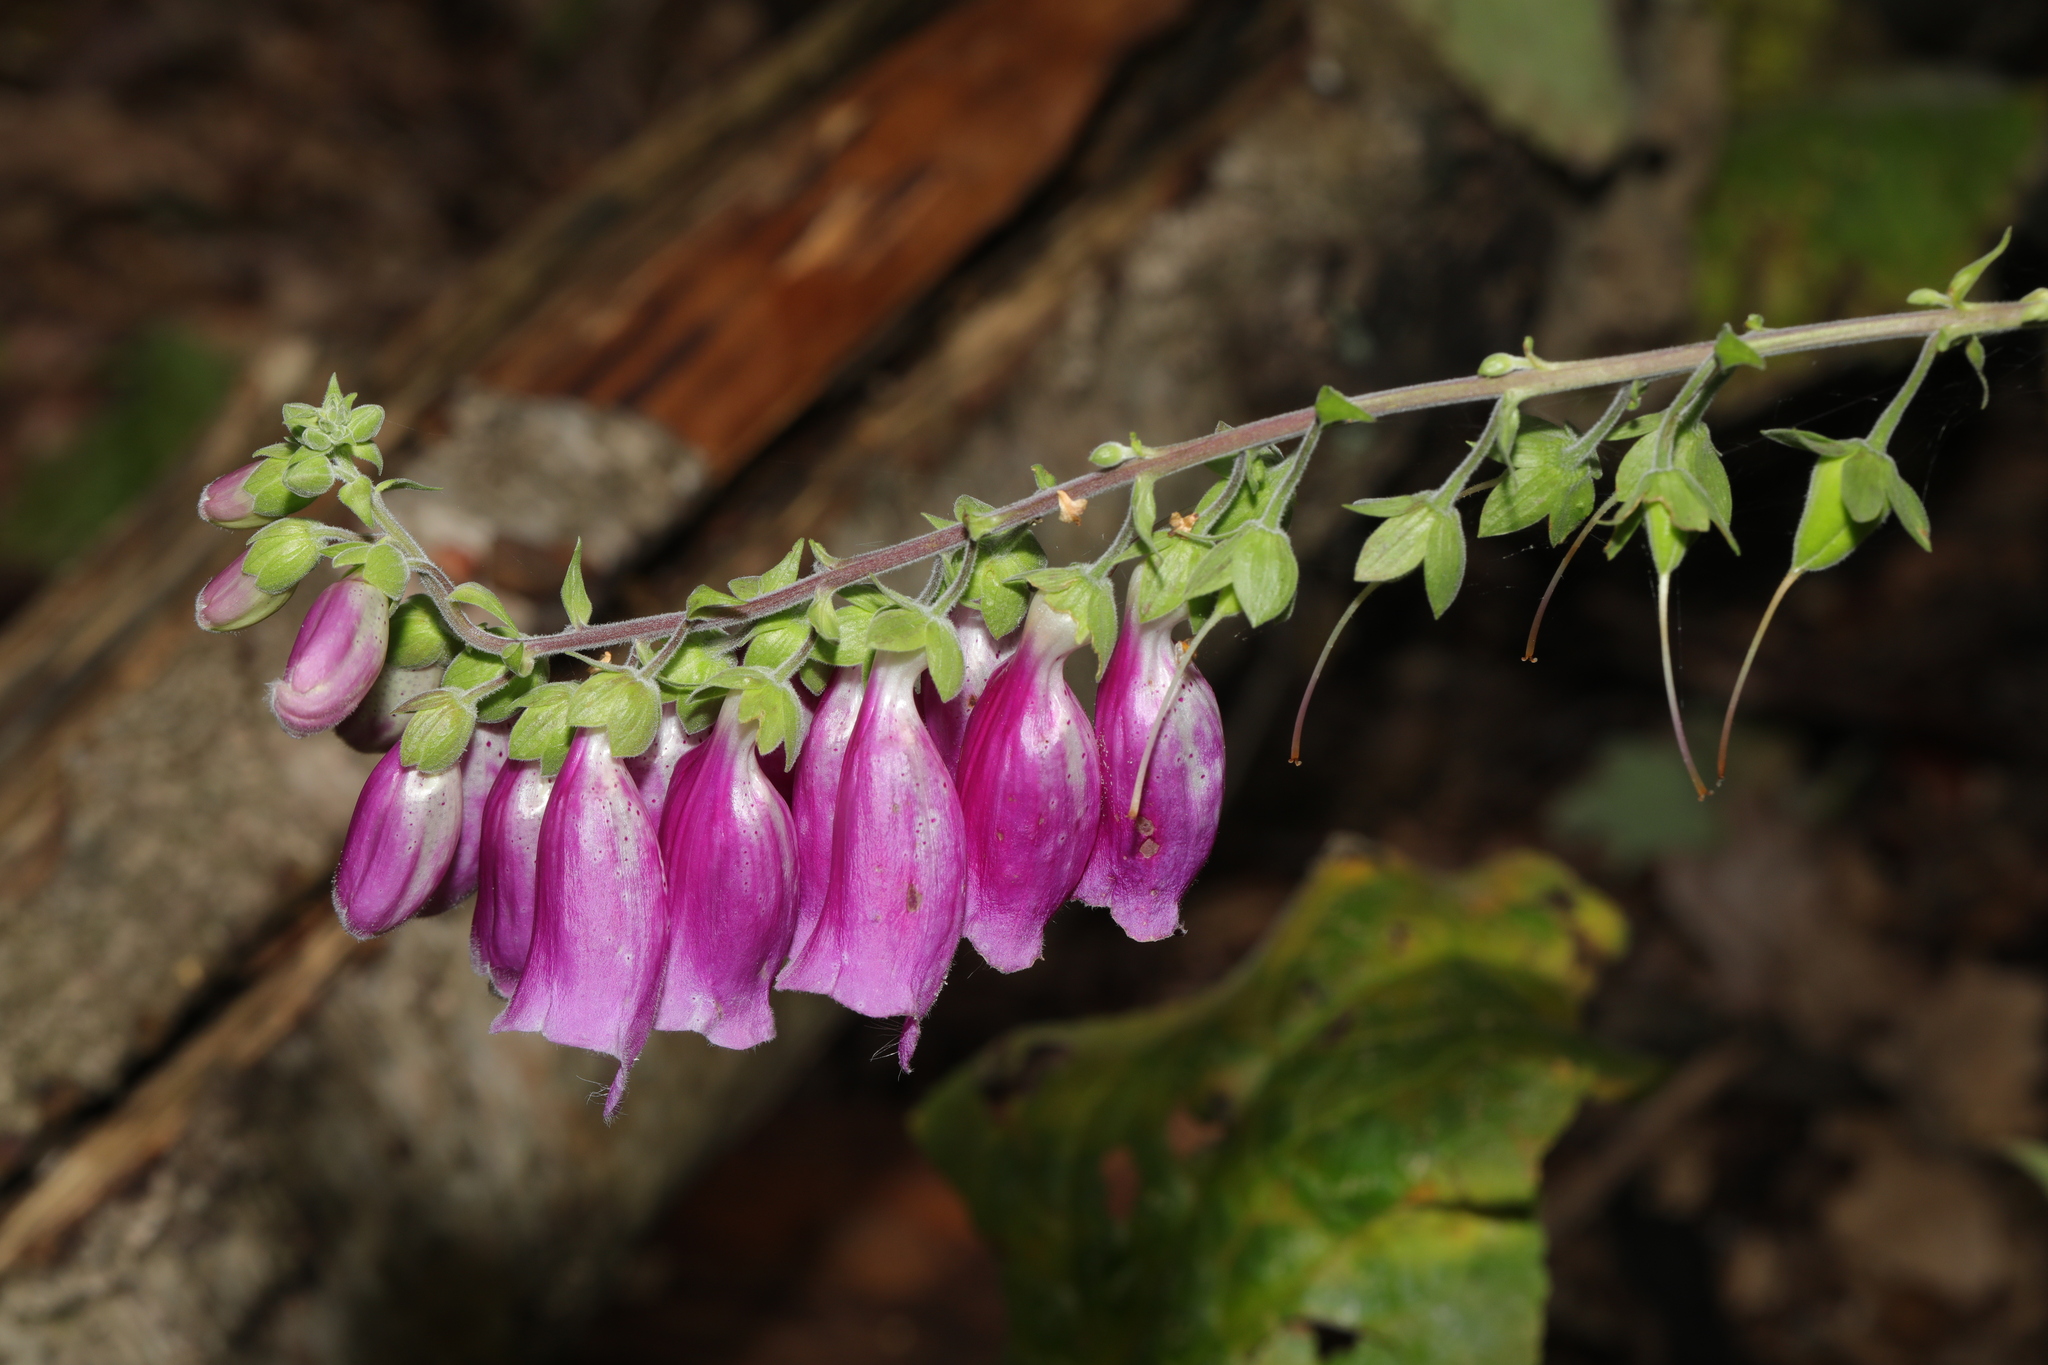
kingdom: Plantae
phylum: Tracheophyta
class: Magnoliopsida
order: Lamiales
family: Plantaginaceae
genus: Digitalis
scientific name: Digitalis purpurea
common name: Foxglove
